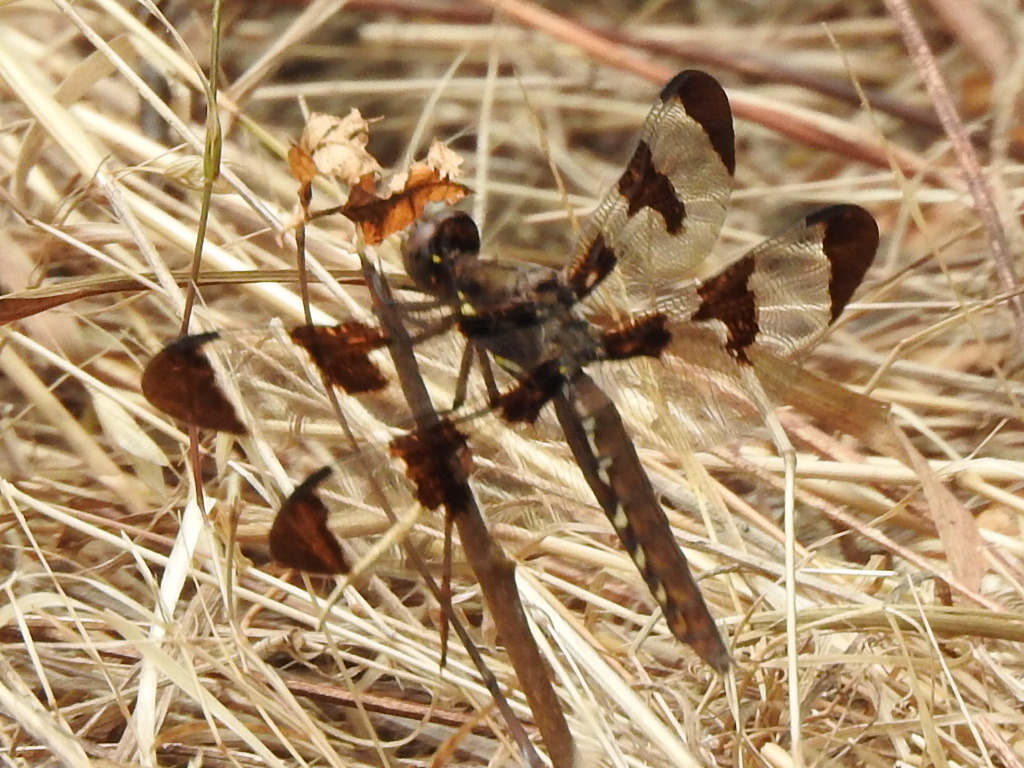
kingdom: Animalia
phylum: Arthropoda
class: Insecta
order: Odonata
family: Libellulidae
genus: Plathemis
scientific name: Plathemis lydia
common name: Common whitetail
